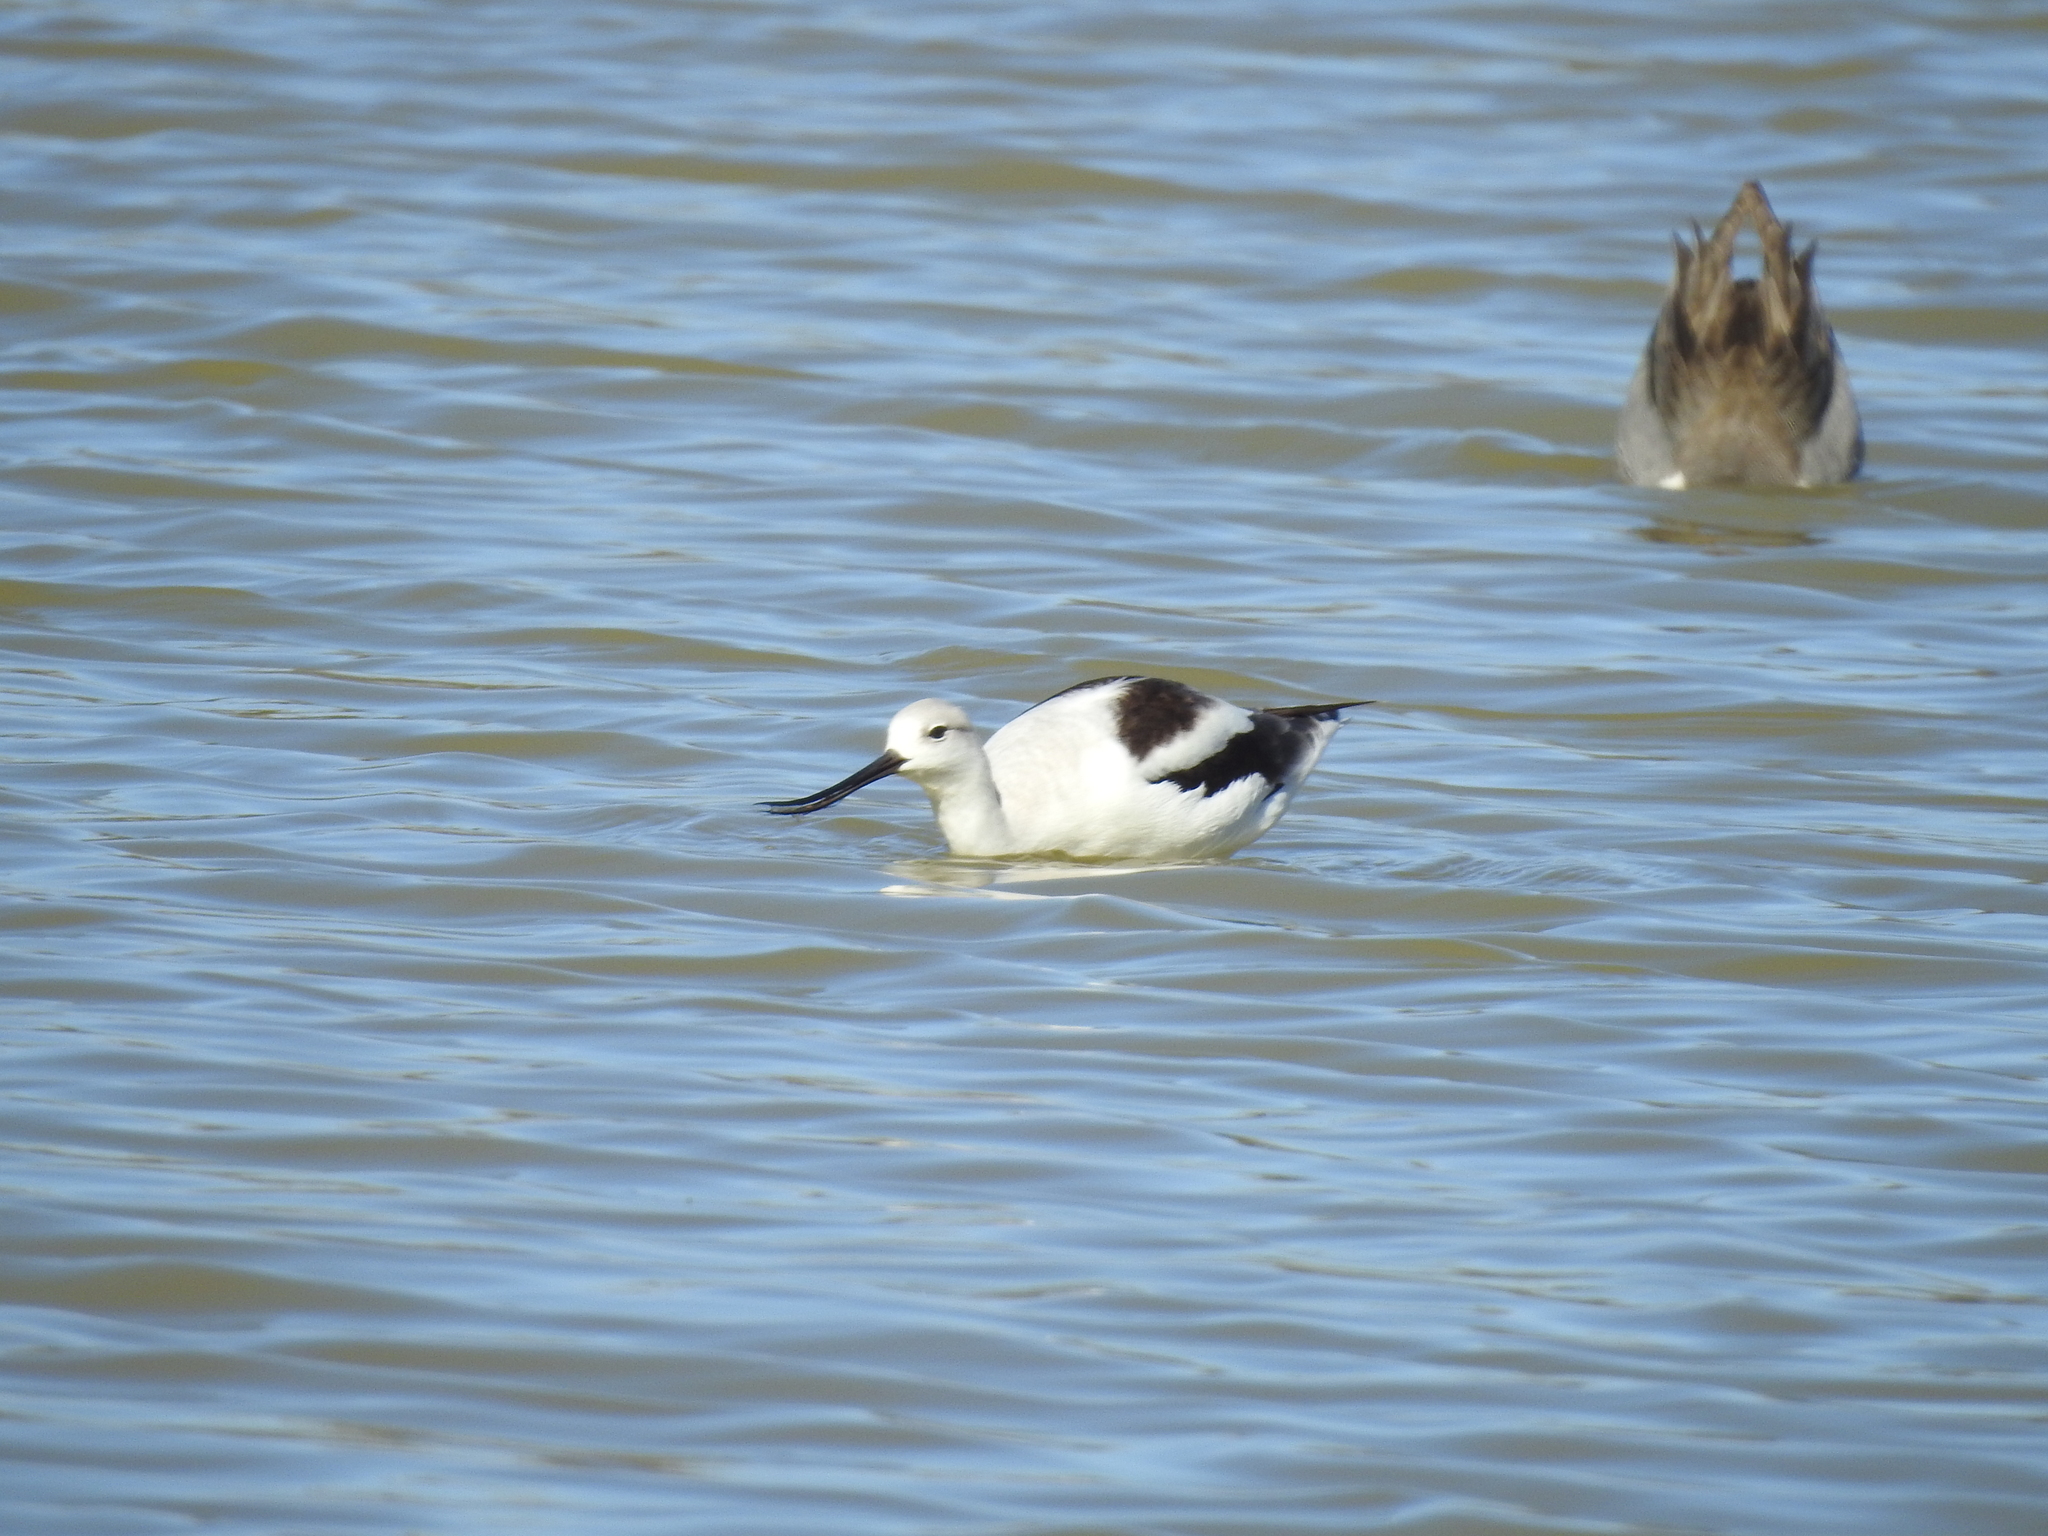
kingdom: Animalia
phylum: Chordata
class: Aves
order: Charadriiformes
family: Recurvirostridae
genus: Recurvirostra
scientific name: Recurvirostra americana
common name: American avocet
